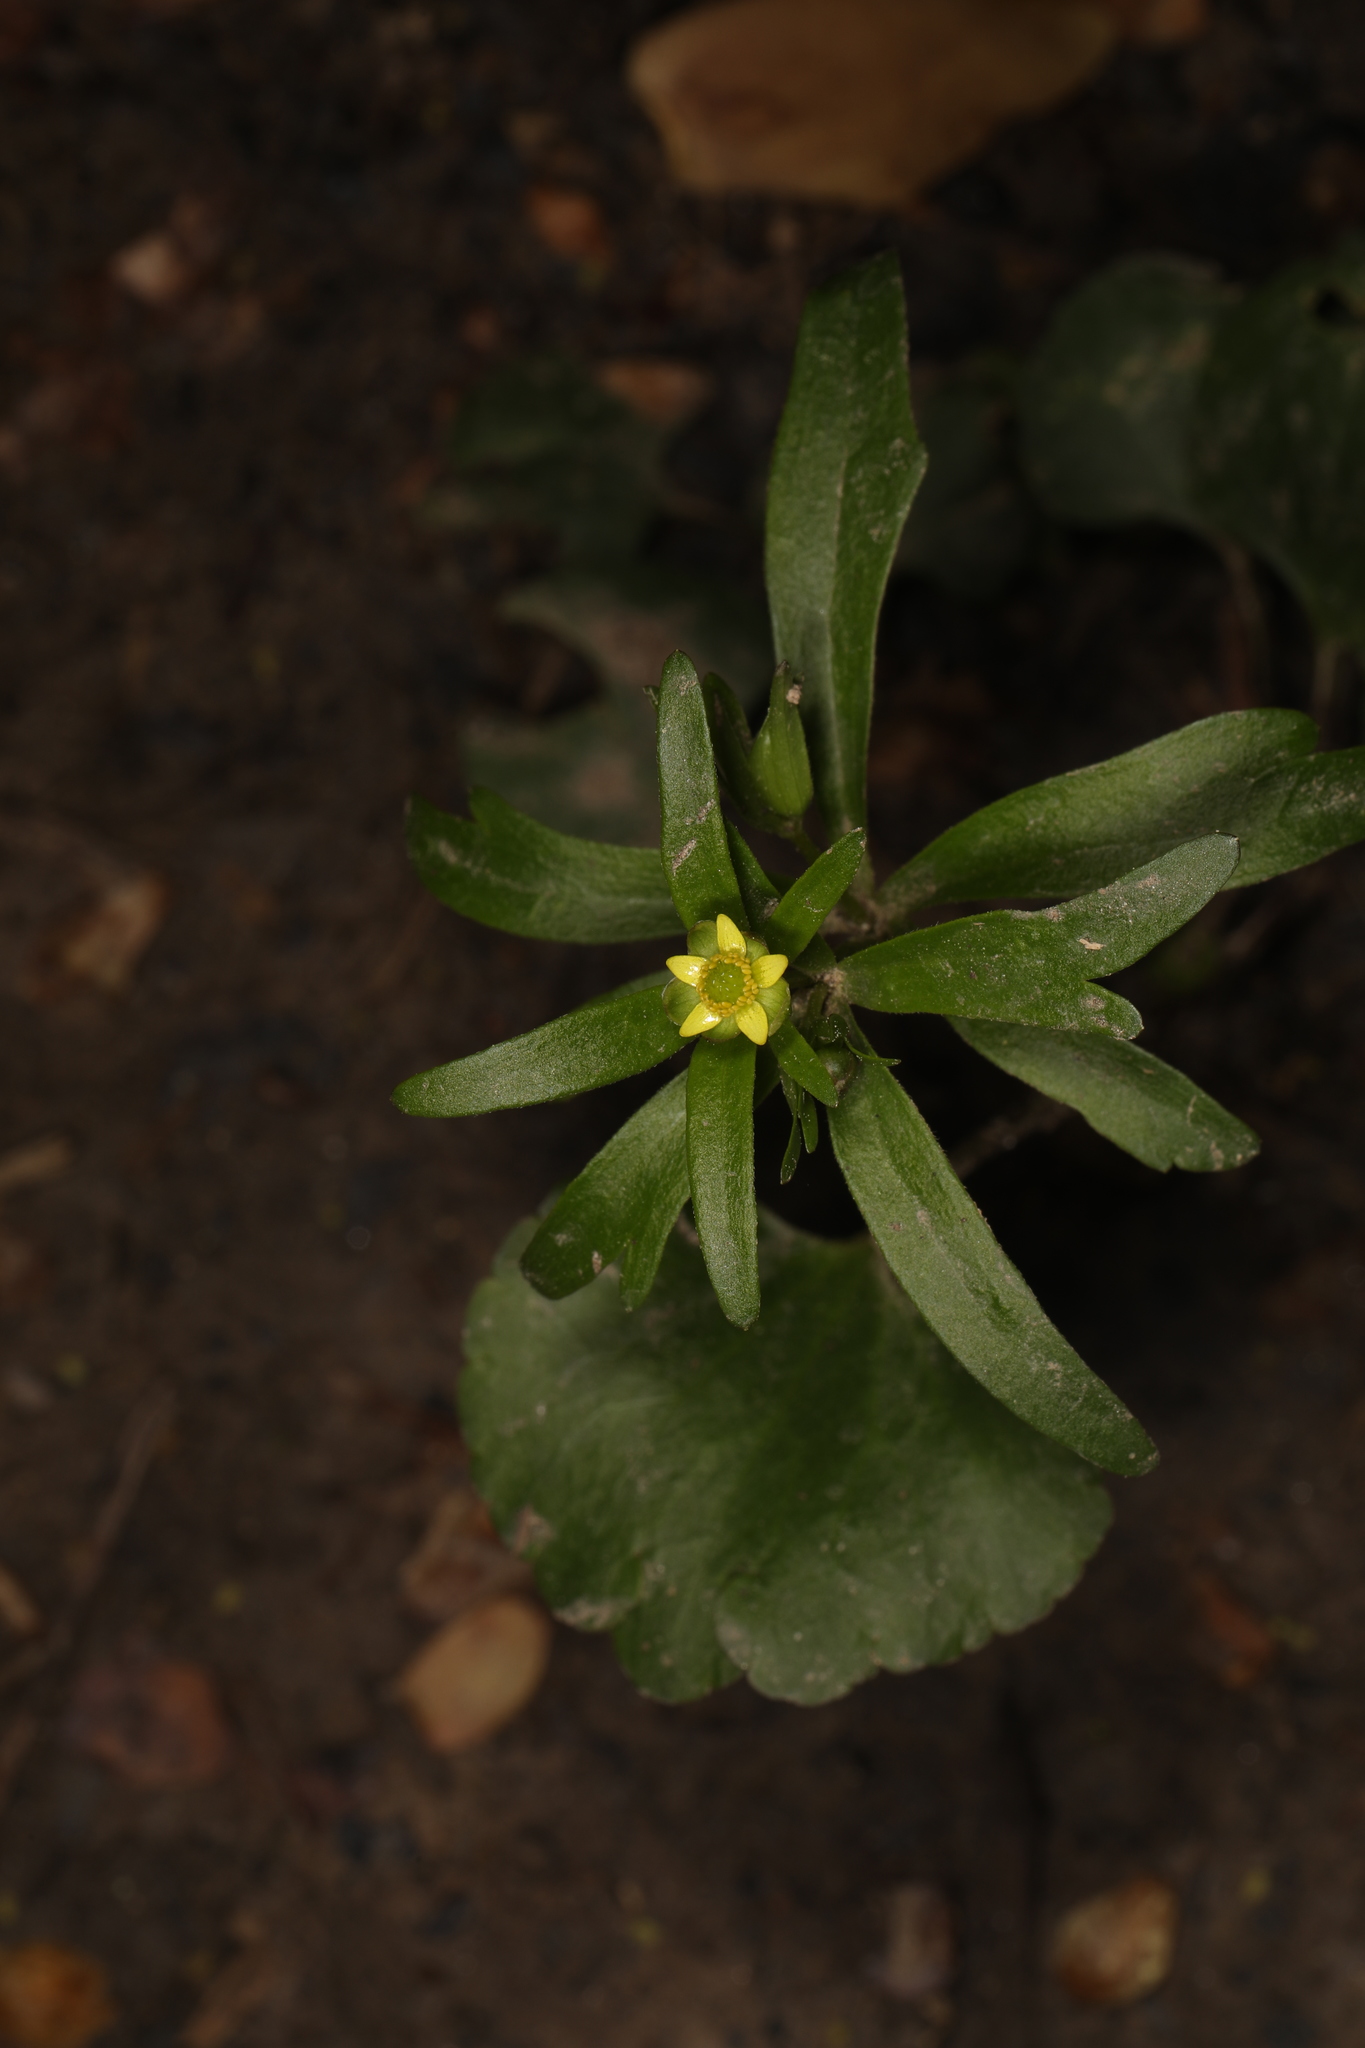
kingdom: Plantae
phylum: Tracheophyta
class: Magnoliopsida
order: Ranunculales
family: Ranunculaceae
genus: Ranunculus
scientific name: Ranunculus abortivus
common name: Early wood buttercup
